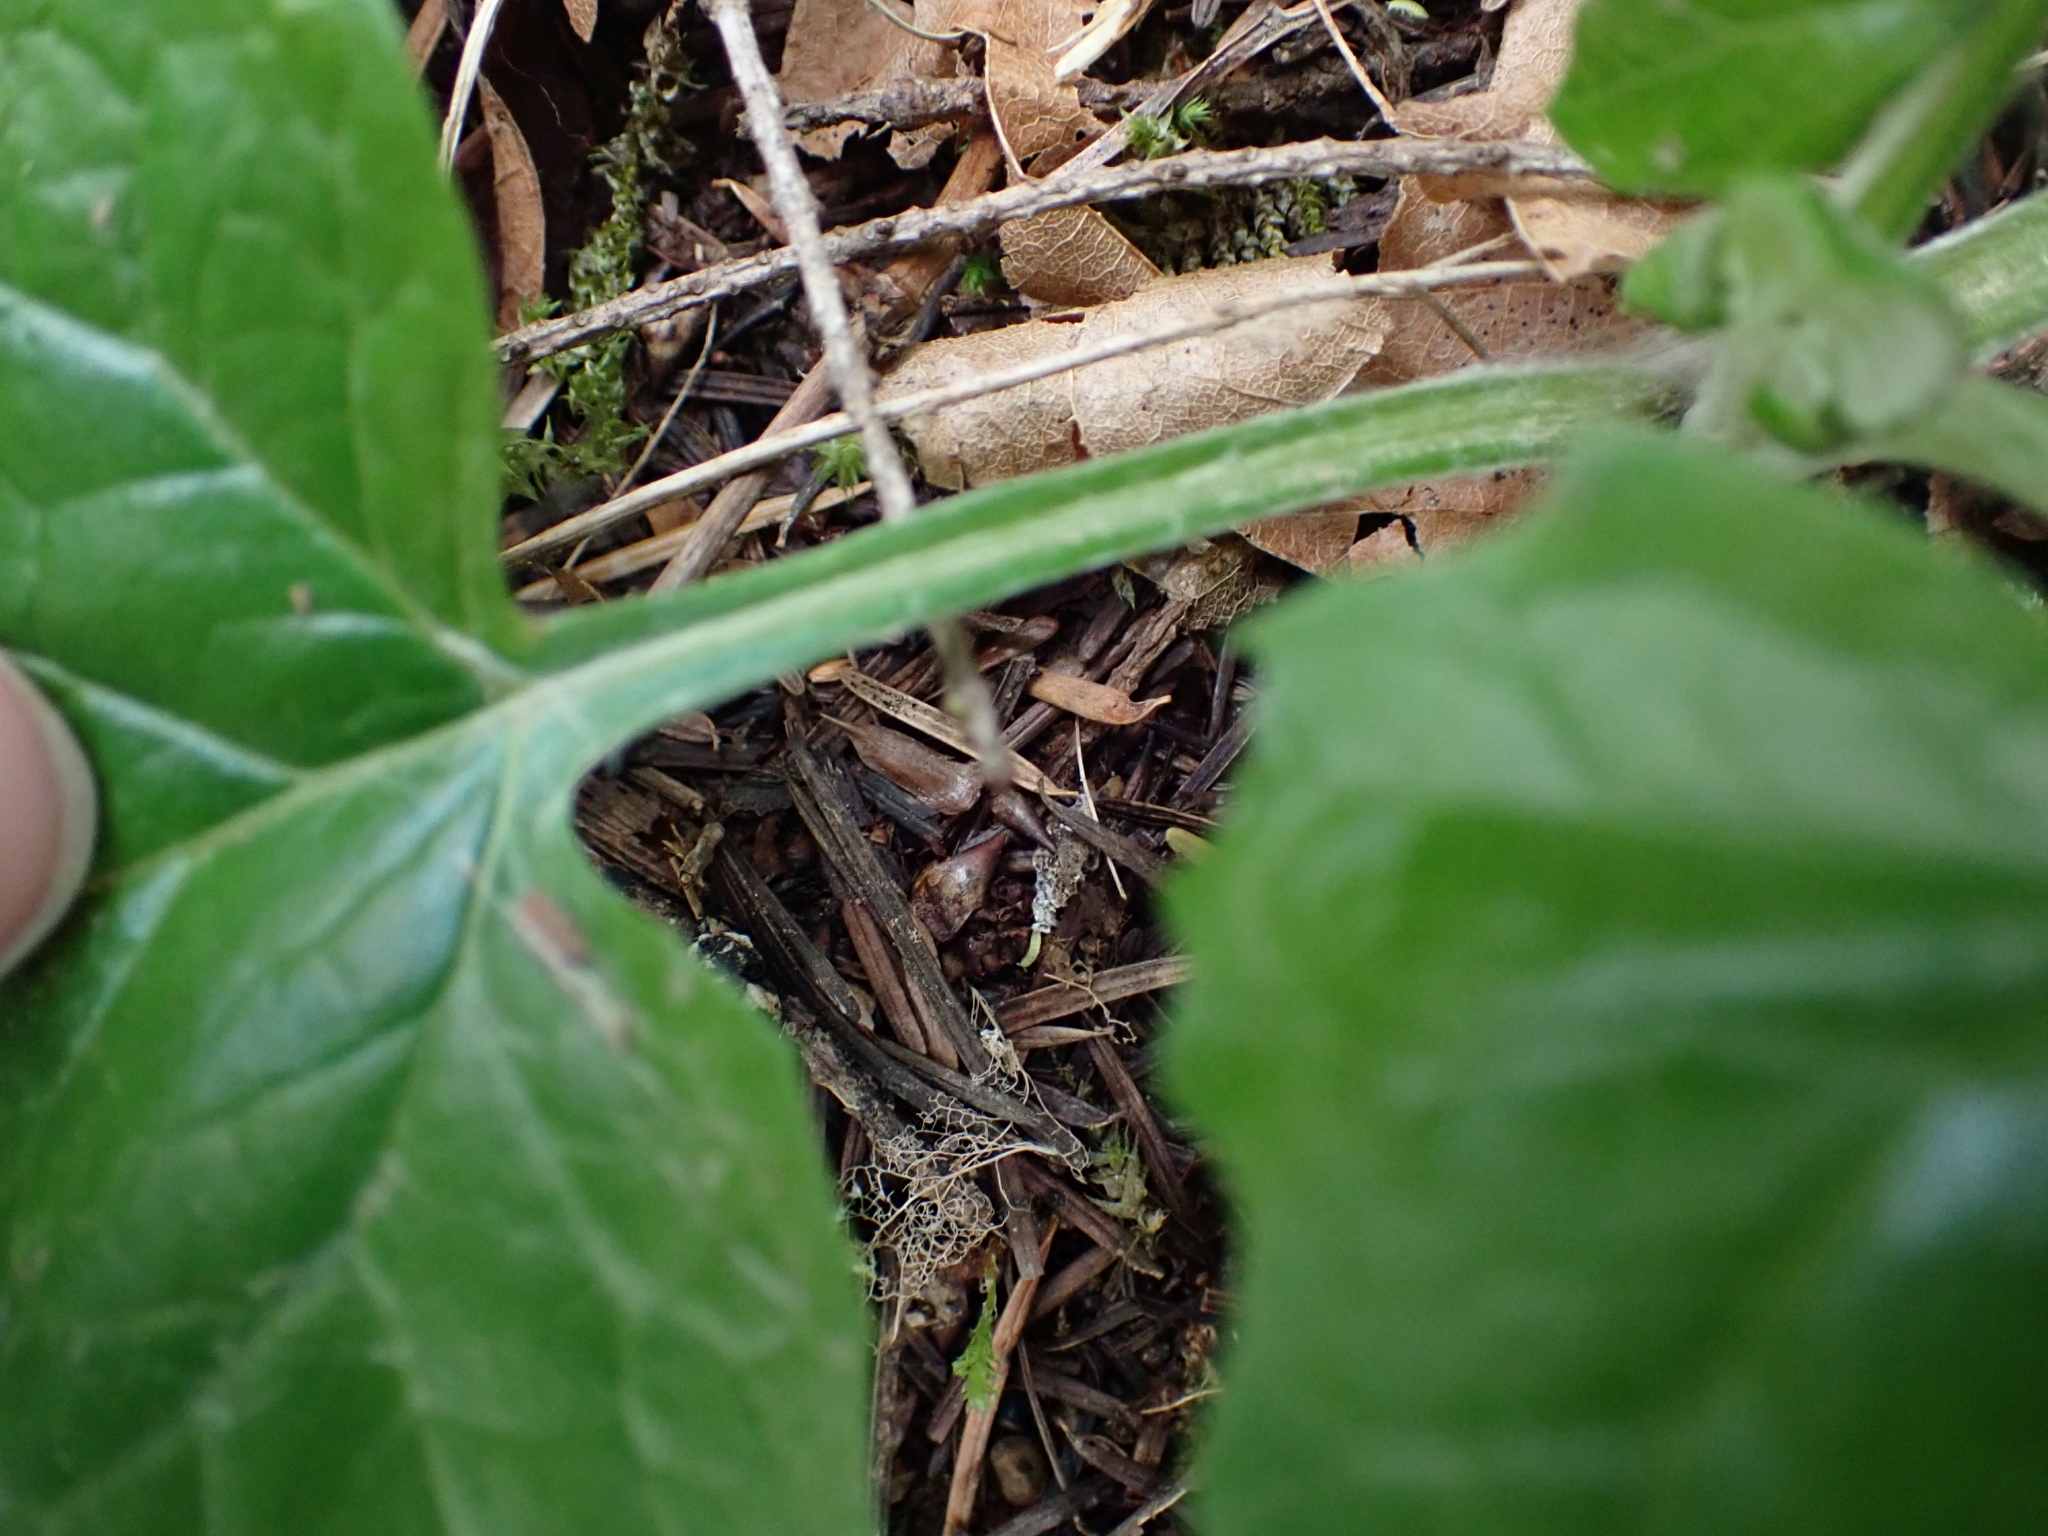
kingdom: Plantae
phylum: Tracheophyta
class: Magnoliopsida
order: Asterales
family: Asteraceae
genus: Adenocaulon
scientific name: Adenocaulon bicolor
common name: Trailplant
